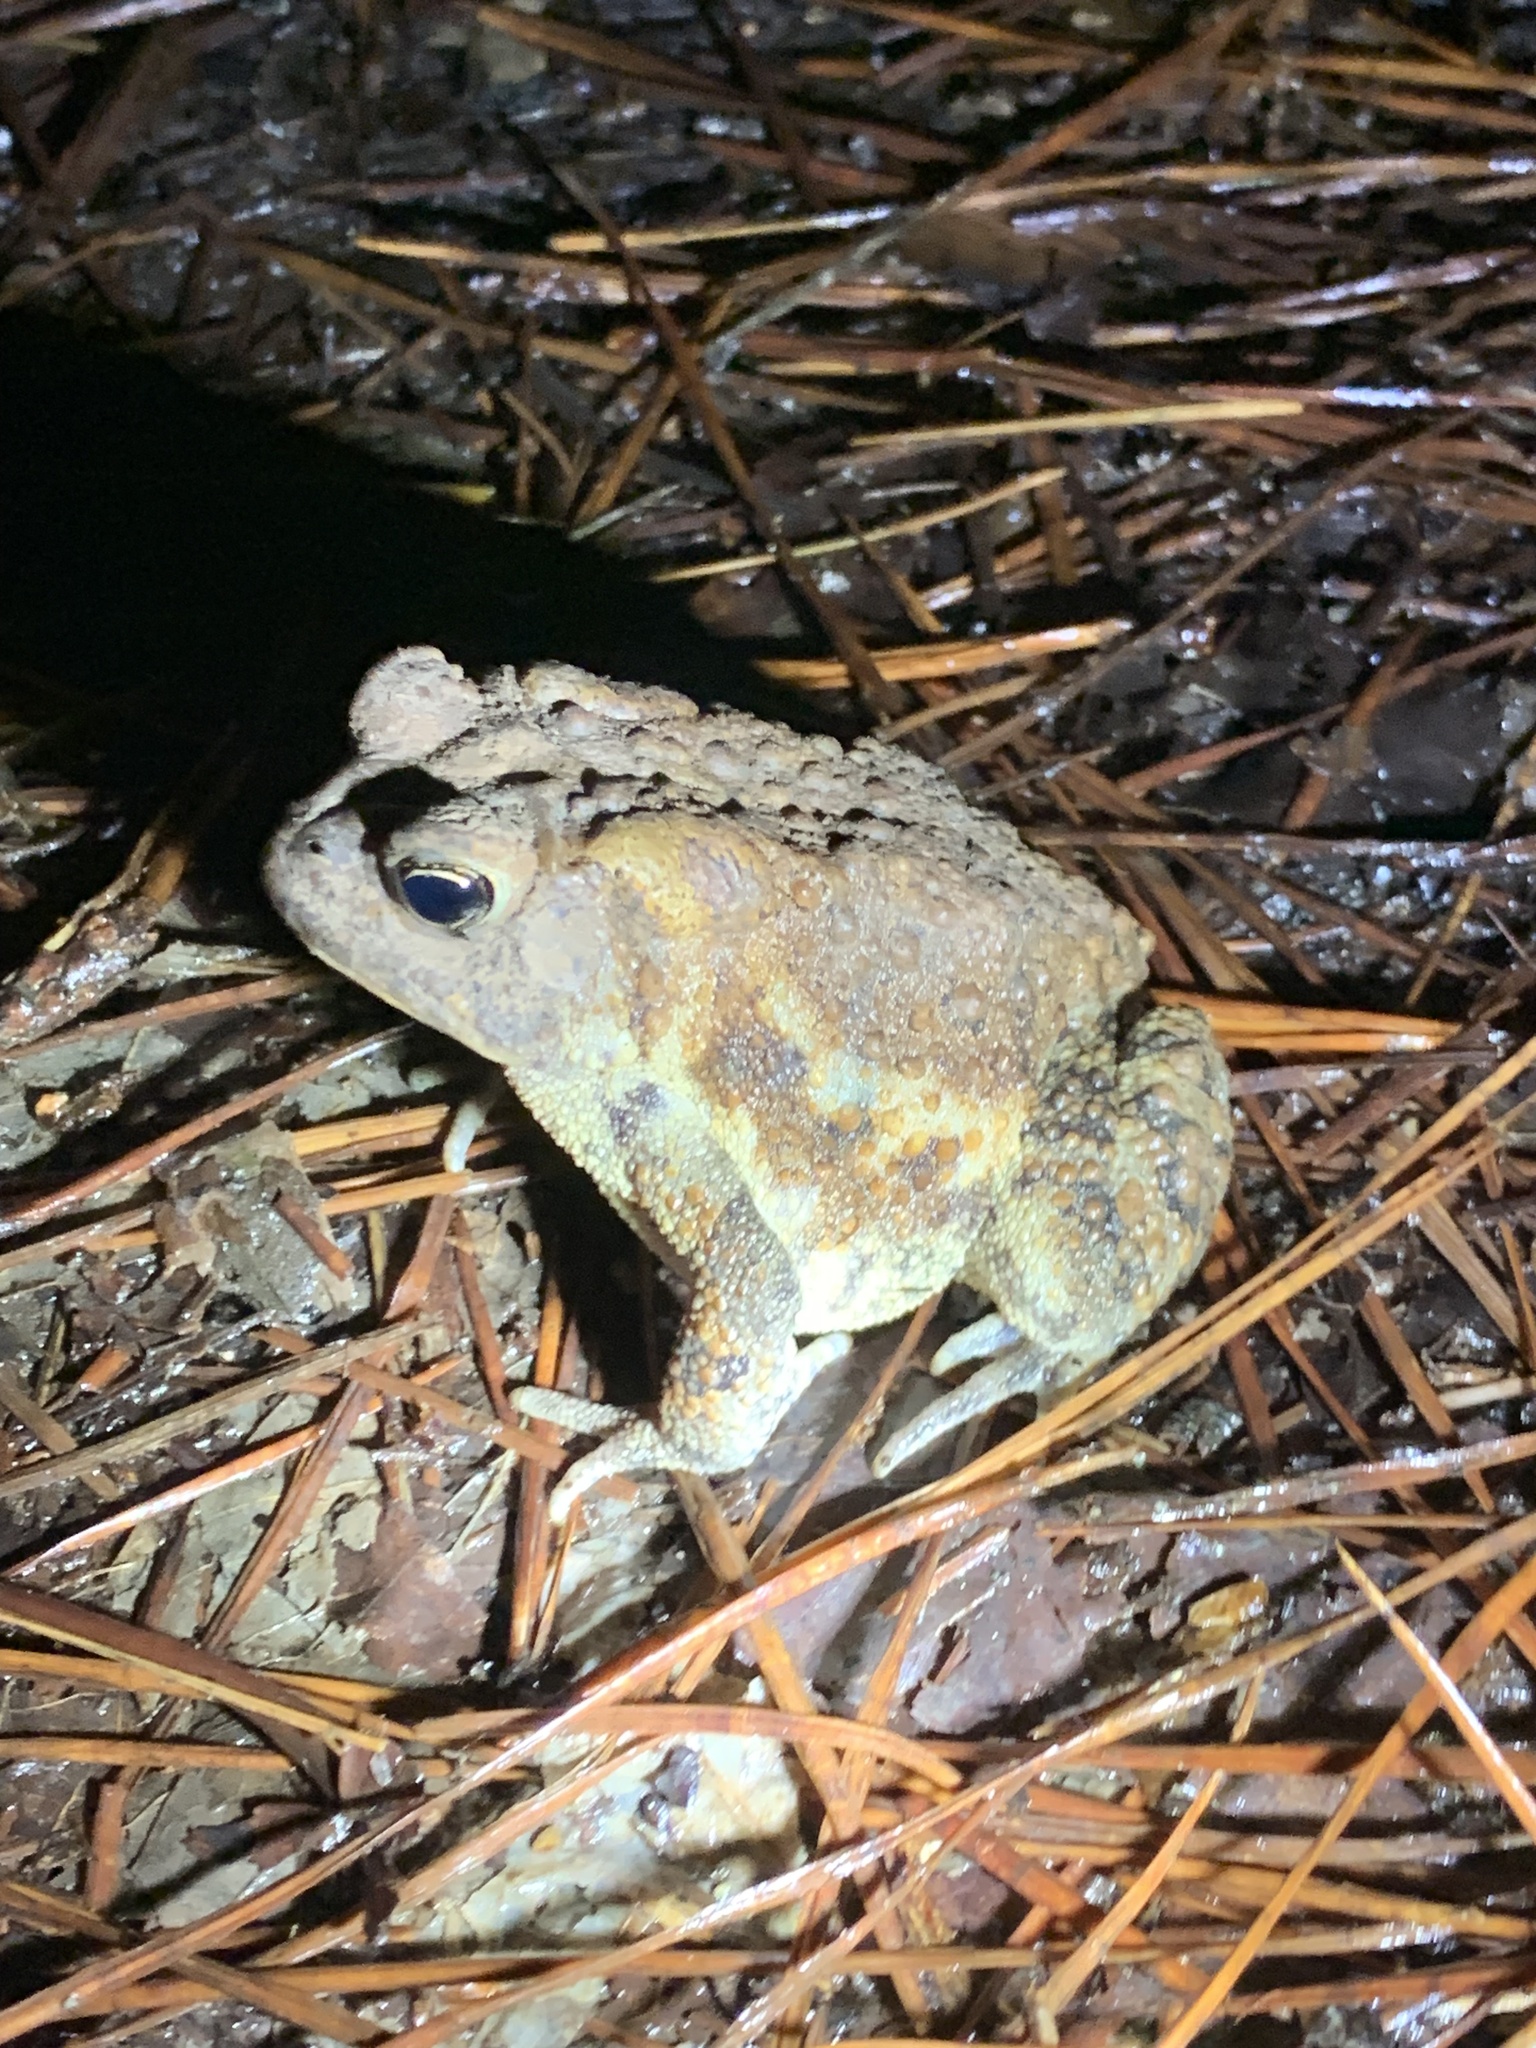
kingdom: Animalia
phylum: Chordata
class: Amphibia
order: Anura
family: Bufonidae
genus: Anaxyrus
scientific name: Anaxyrus americanus
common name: American toad
